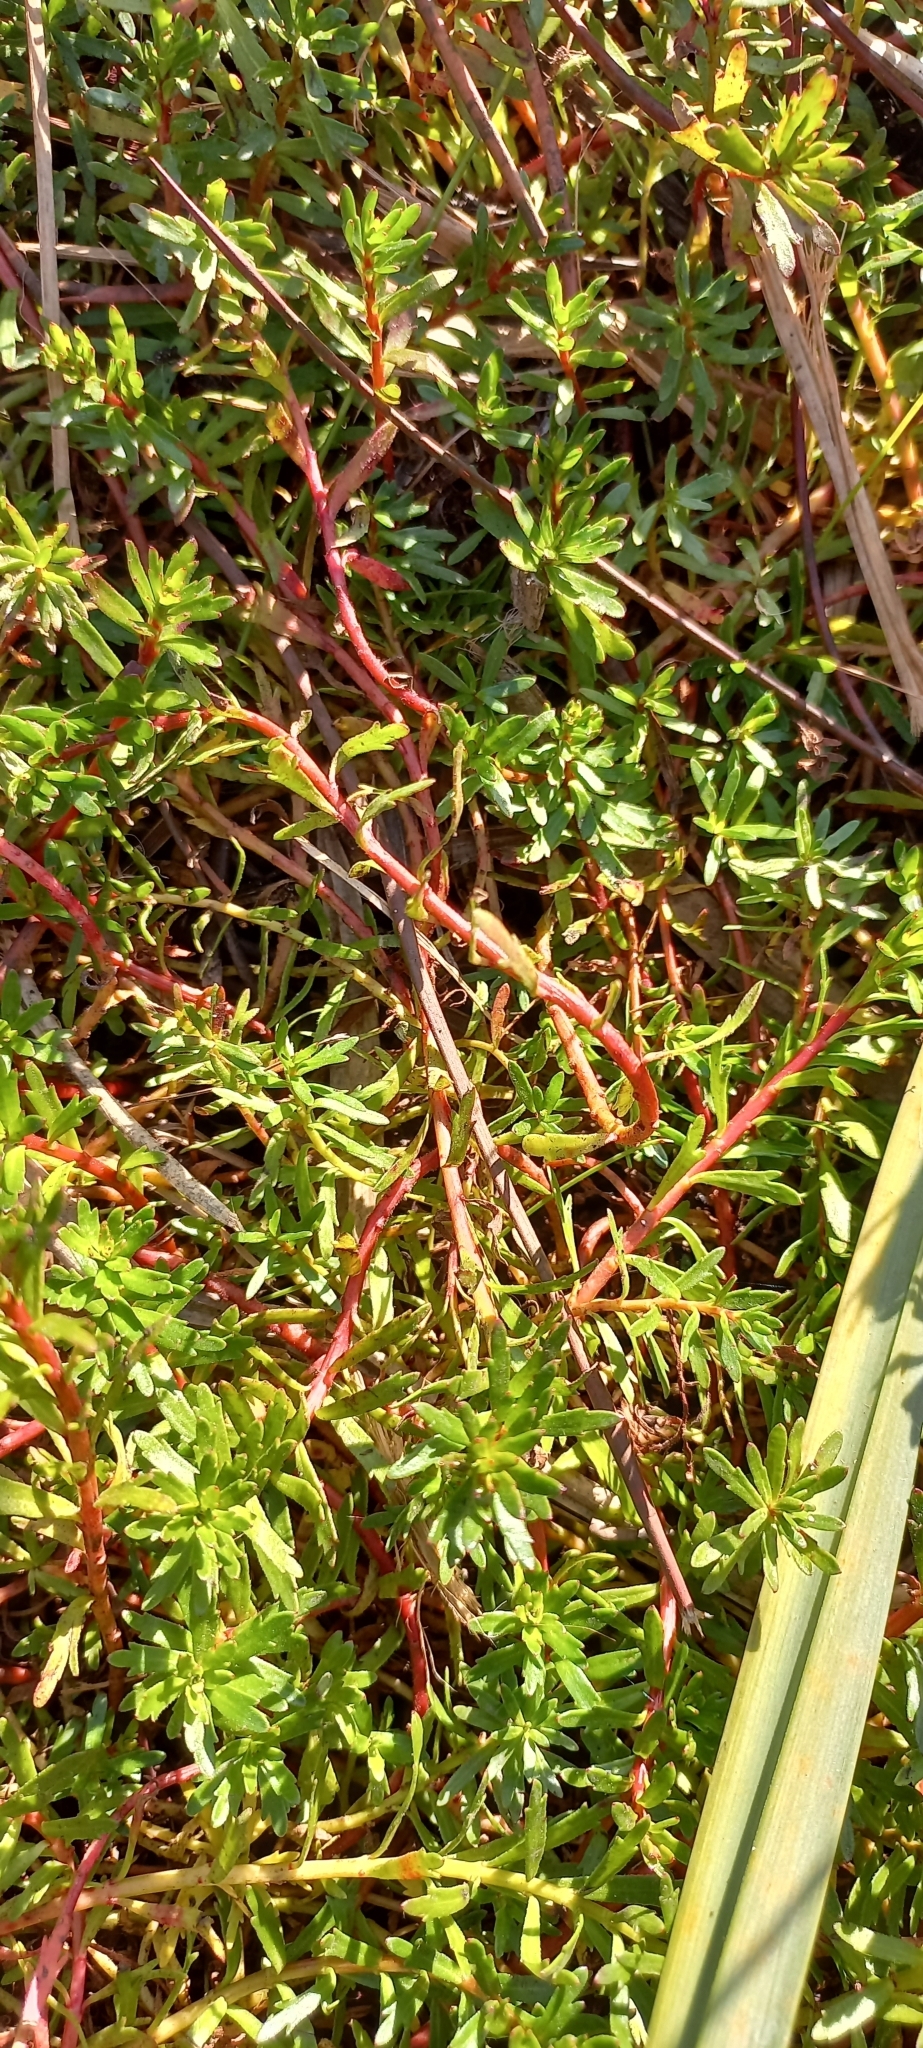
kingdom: Plantae
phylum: Tracheophyta
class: Magnoliopsida
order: Saxifragales
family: Haloragaceae
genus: Laurembergia
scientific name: Laurembergia repens
